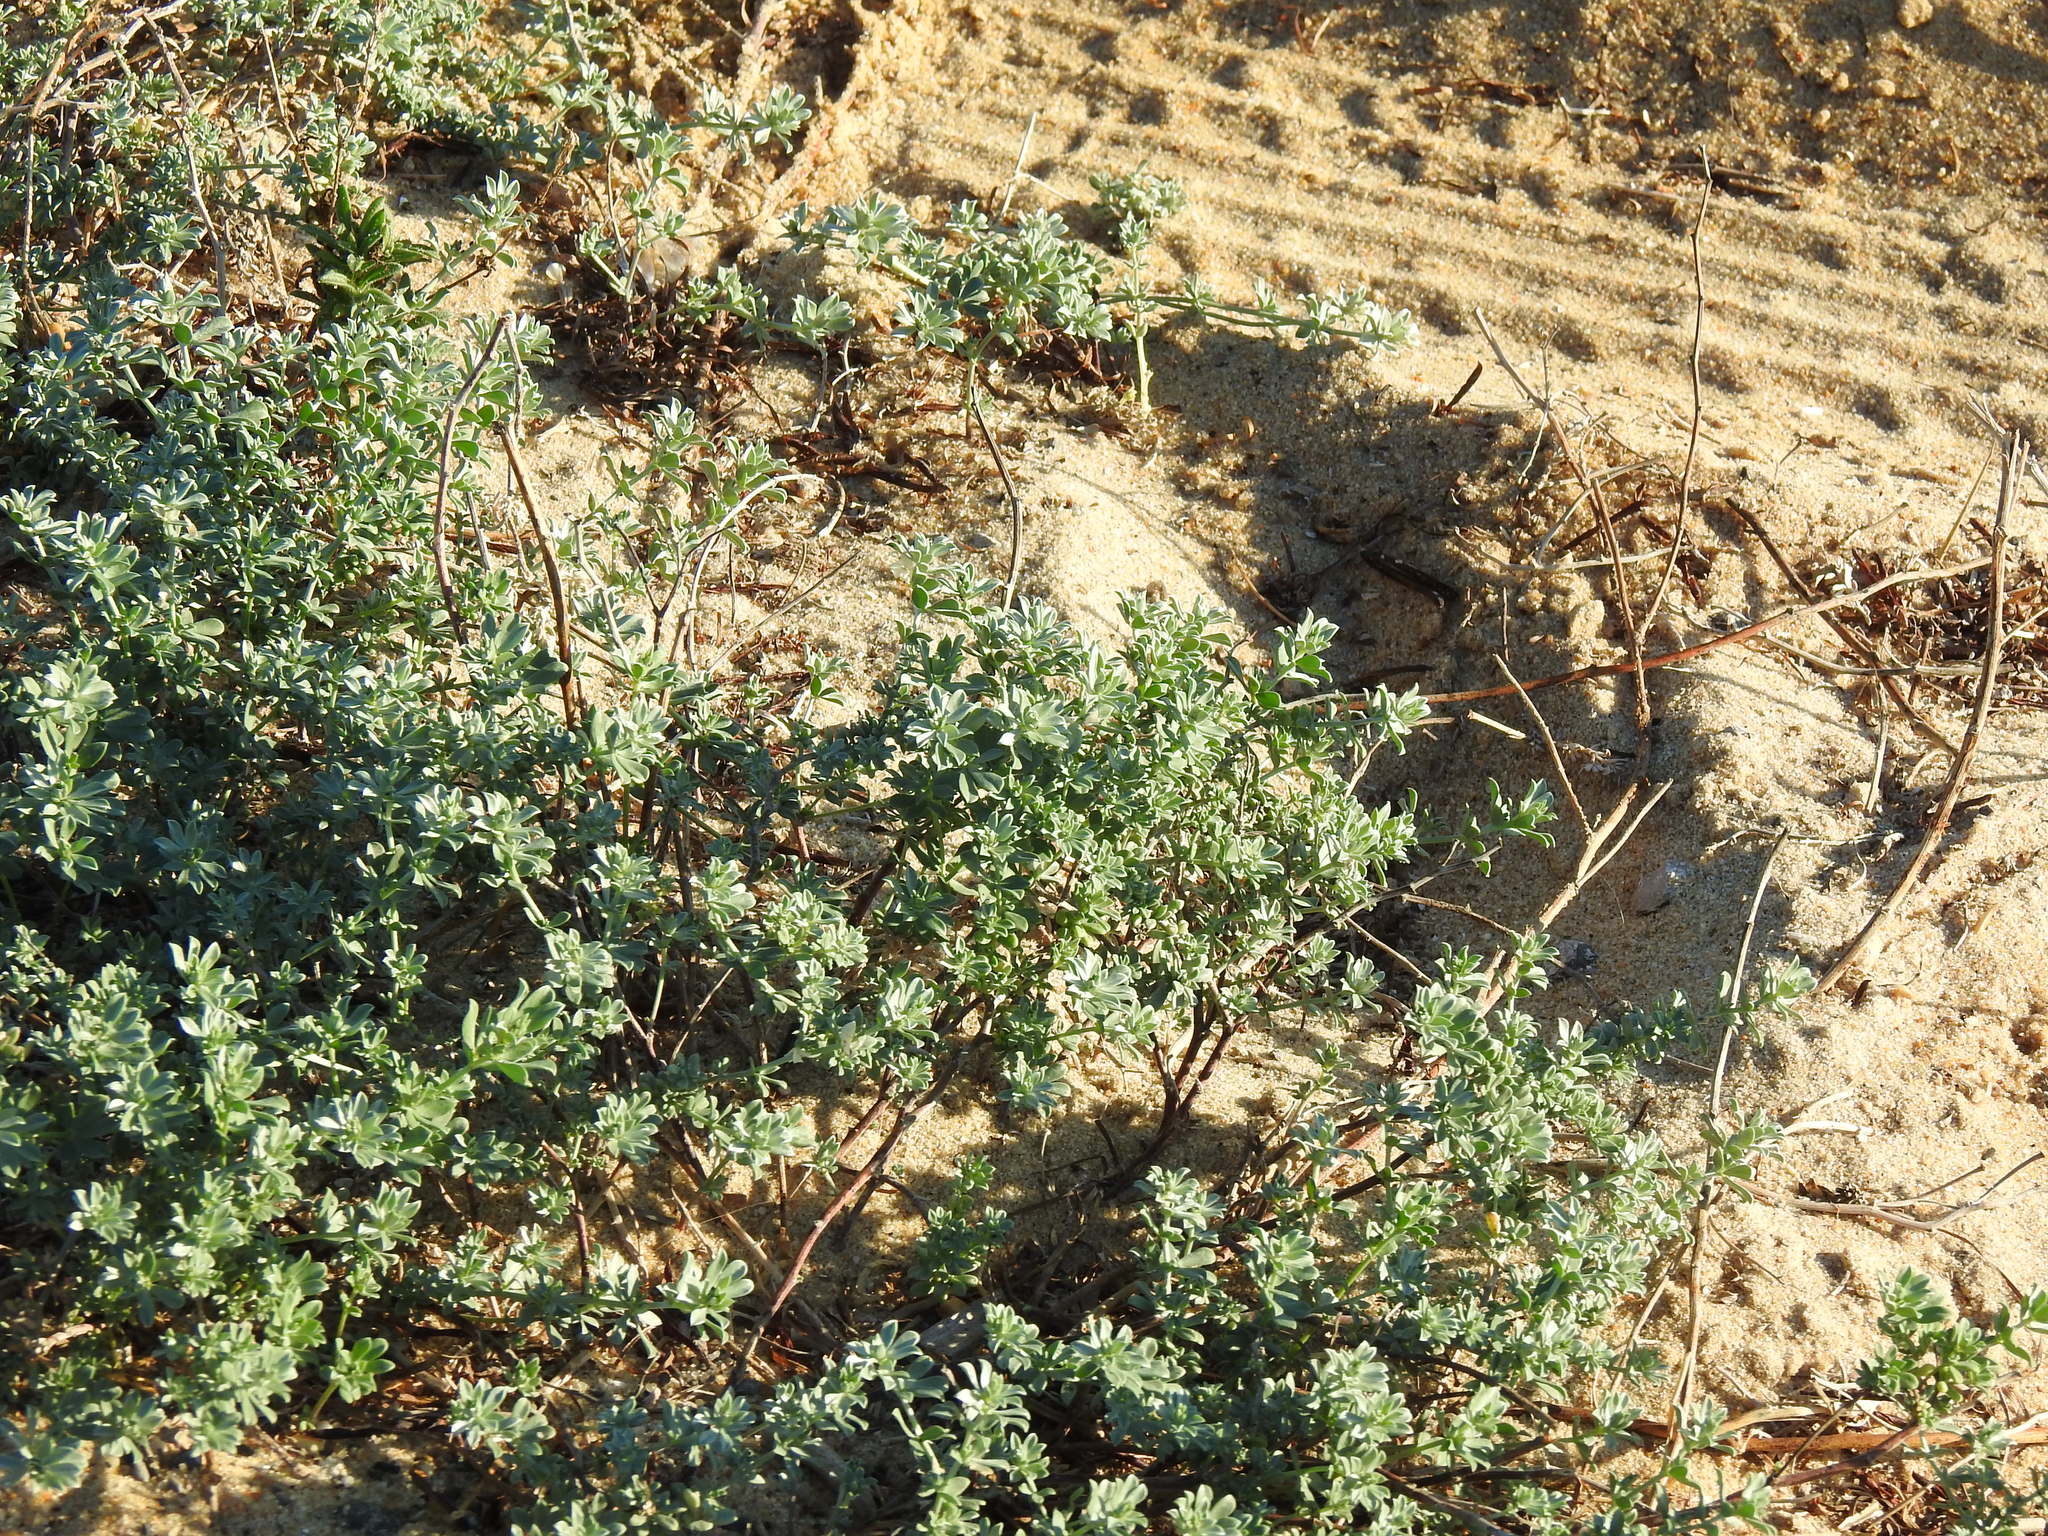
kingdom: Plantae
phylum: Tracheophyta
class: Magnoliopsida
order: Fabales
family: Fabaceae
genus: Lotus
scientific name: Lotus creticus
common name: Cretan bird's-foot trefoil
